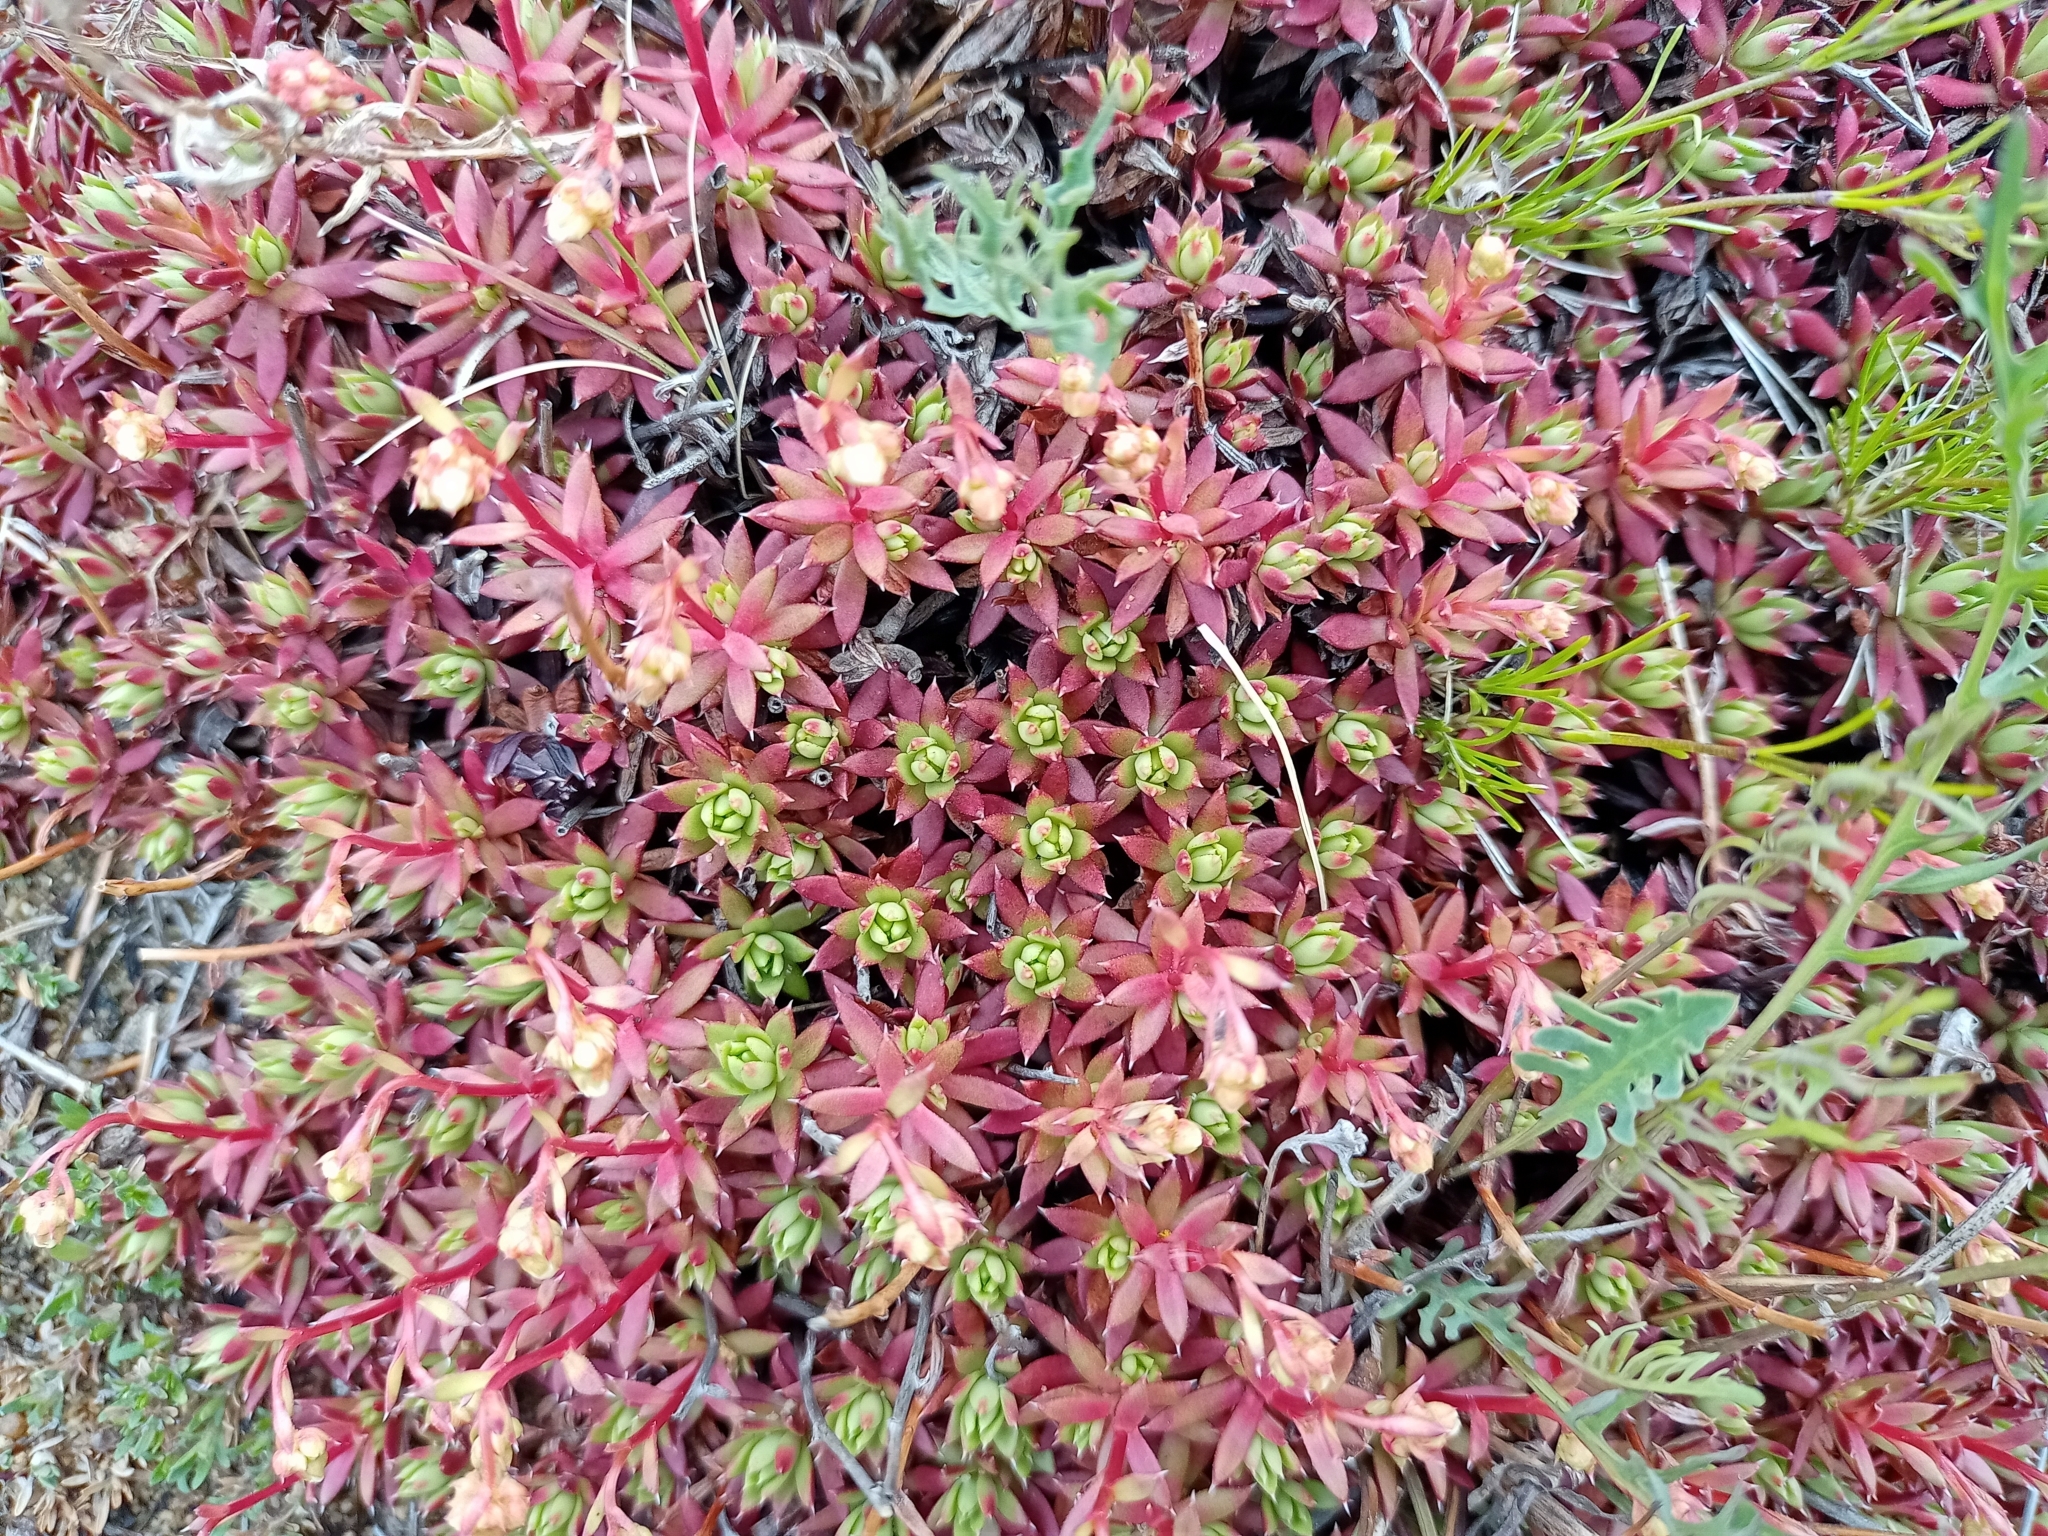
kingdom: Plantae
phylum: Tracheophyta
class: Magnoliopsida
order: Saxifragales
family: Saxifragaceae
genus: Saxifraga
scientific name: Saxifraga
